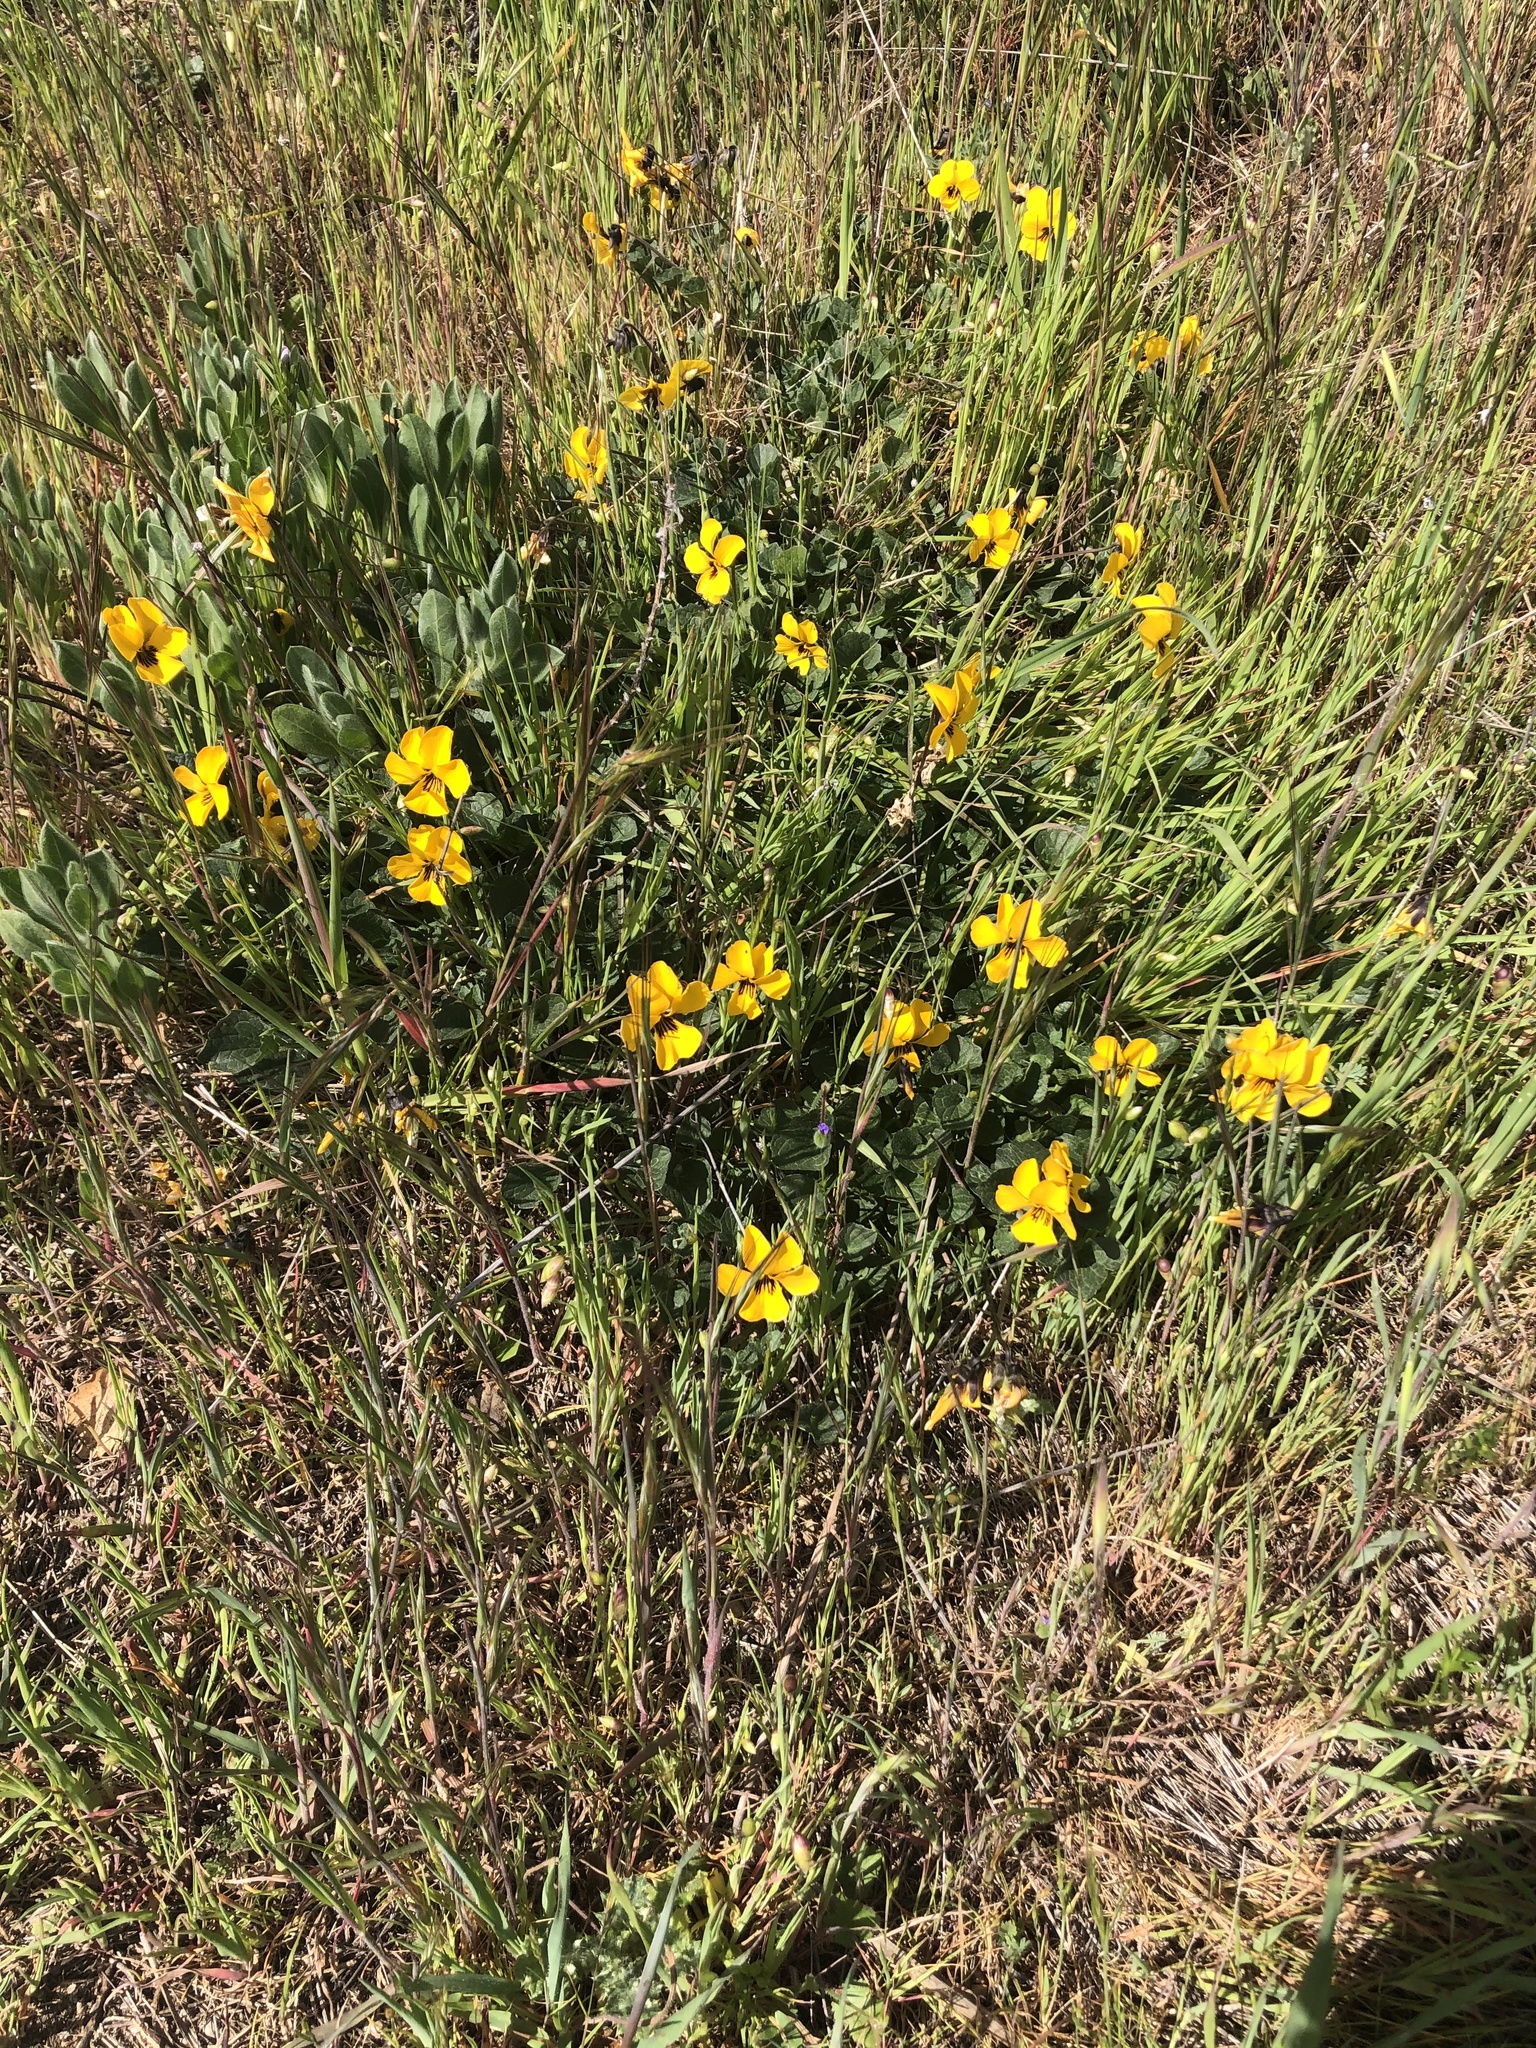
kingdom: Plantae
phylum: Tracheophyta
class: Magnoliopsida
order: Malpighiales
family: Violaceae
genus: Viola
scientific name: Viola pedunculata
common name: California golden violet
